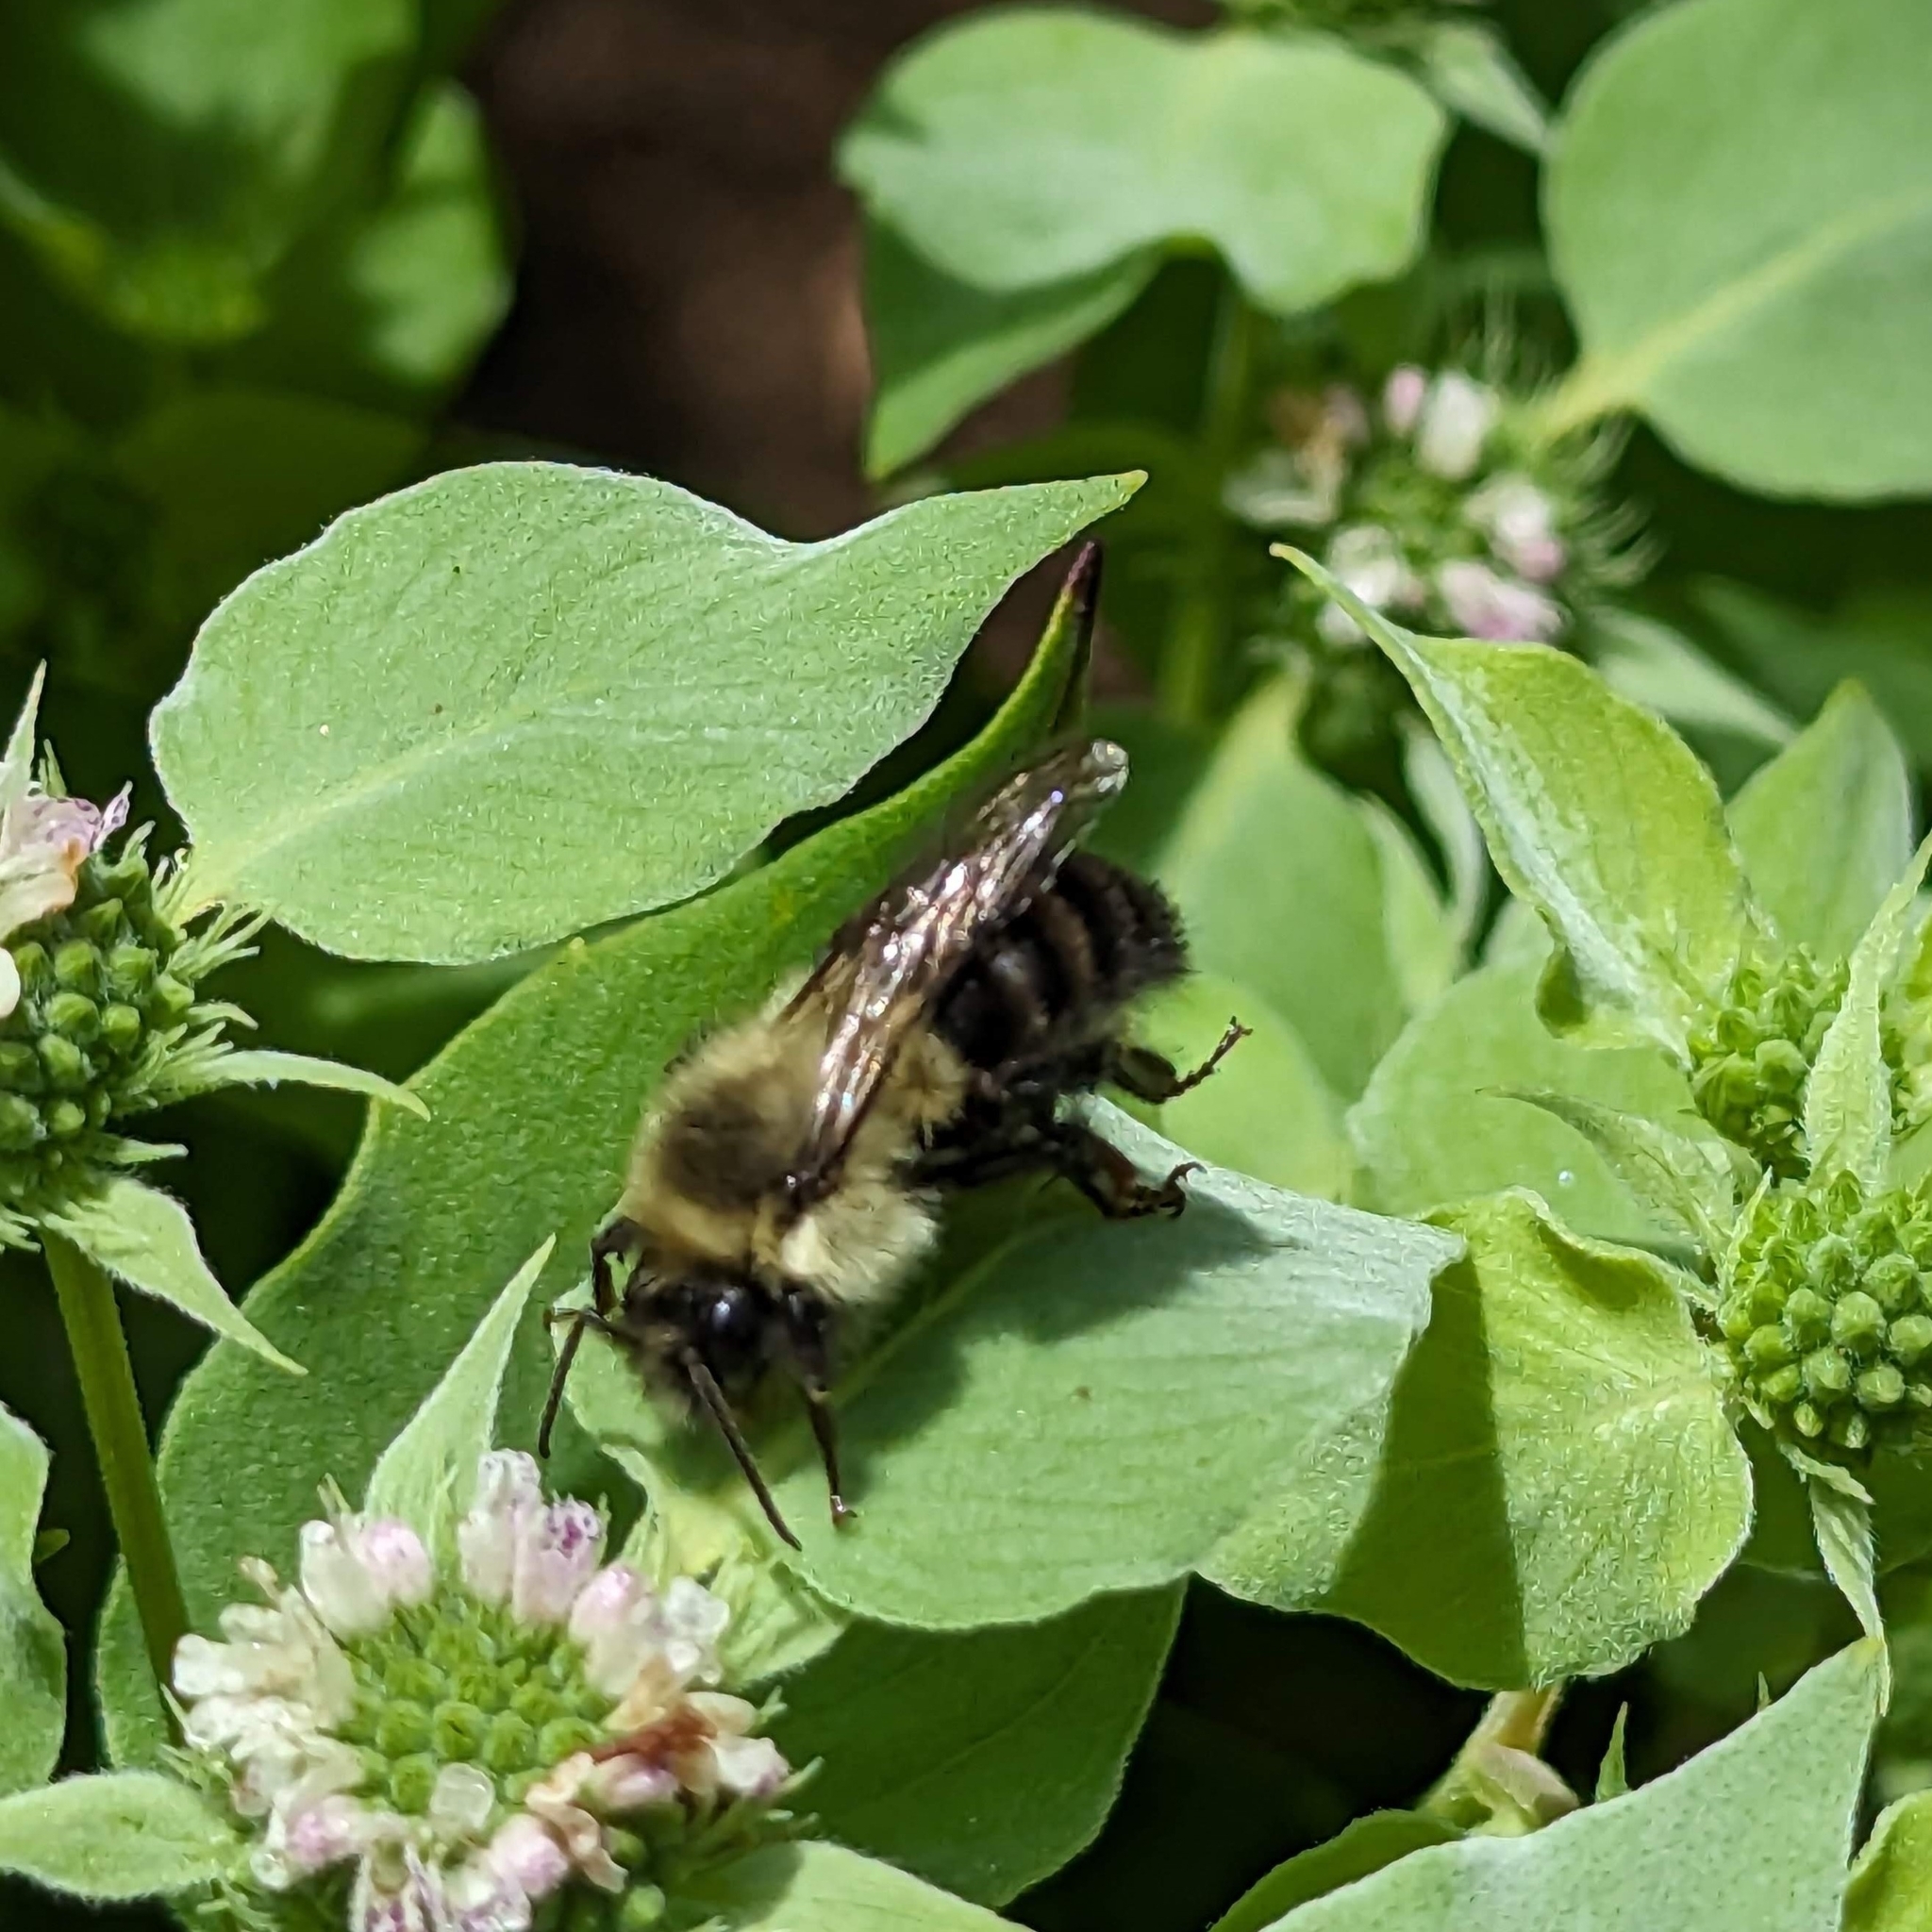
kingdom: Animalia
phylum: Arthropoda
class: Insecta
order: Hymenoptera
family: Apidae
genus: Bombus
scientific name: Bombus impatiens
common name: Common eastern bumble bee
